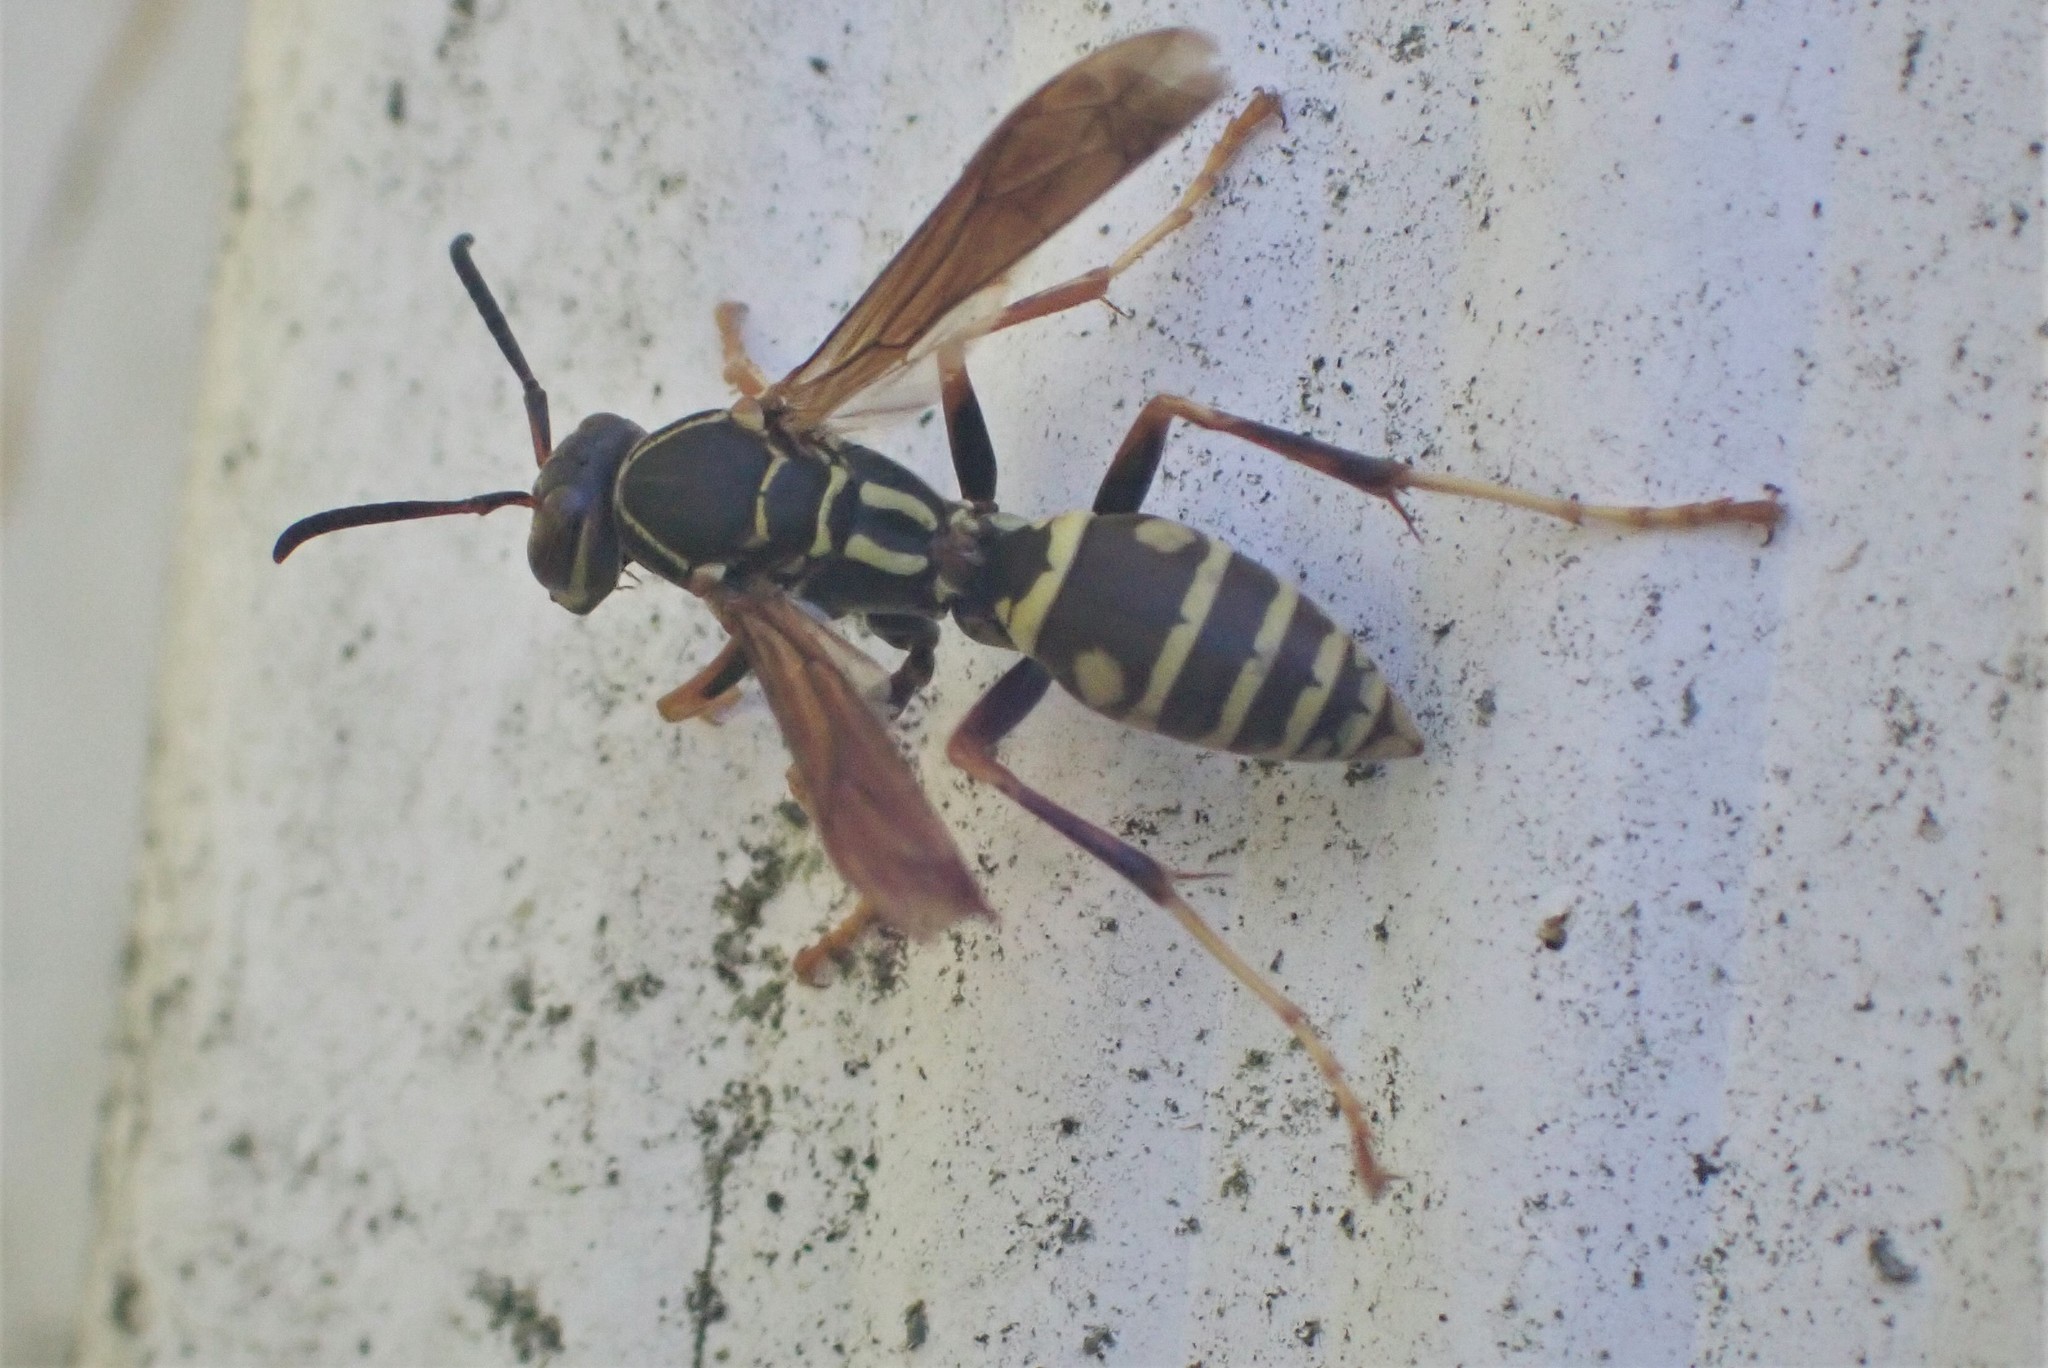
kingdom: Animalia
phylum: Arthropoda
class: Insecta
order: Hymenoptera
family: Eumenidae
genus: Polistes
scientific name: Polistes fuscatus
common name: Dark paper wasp
